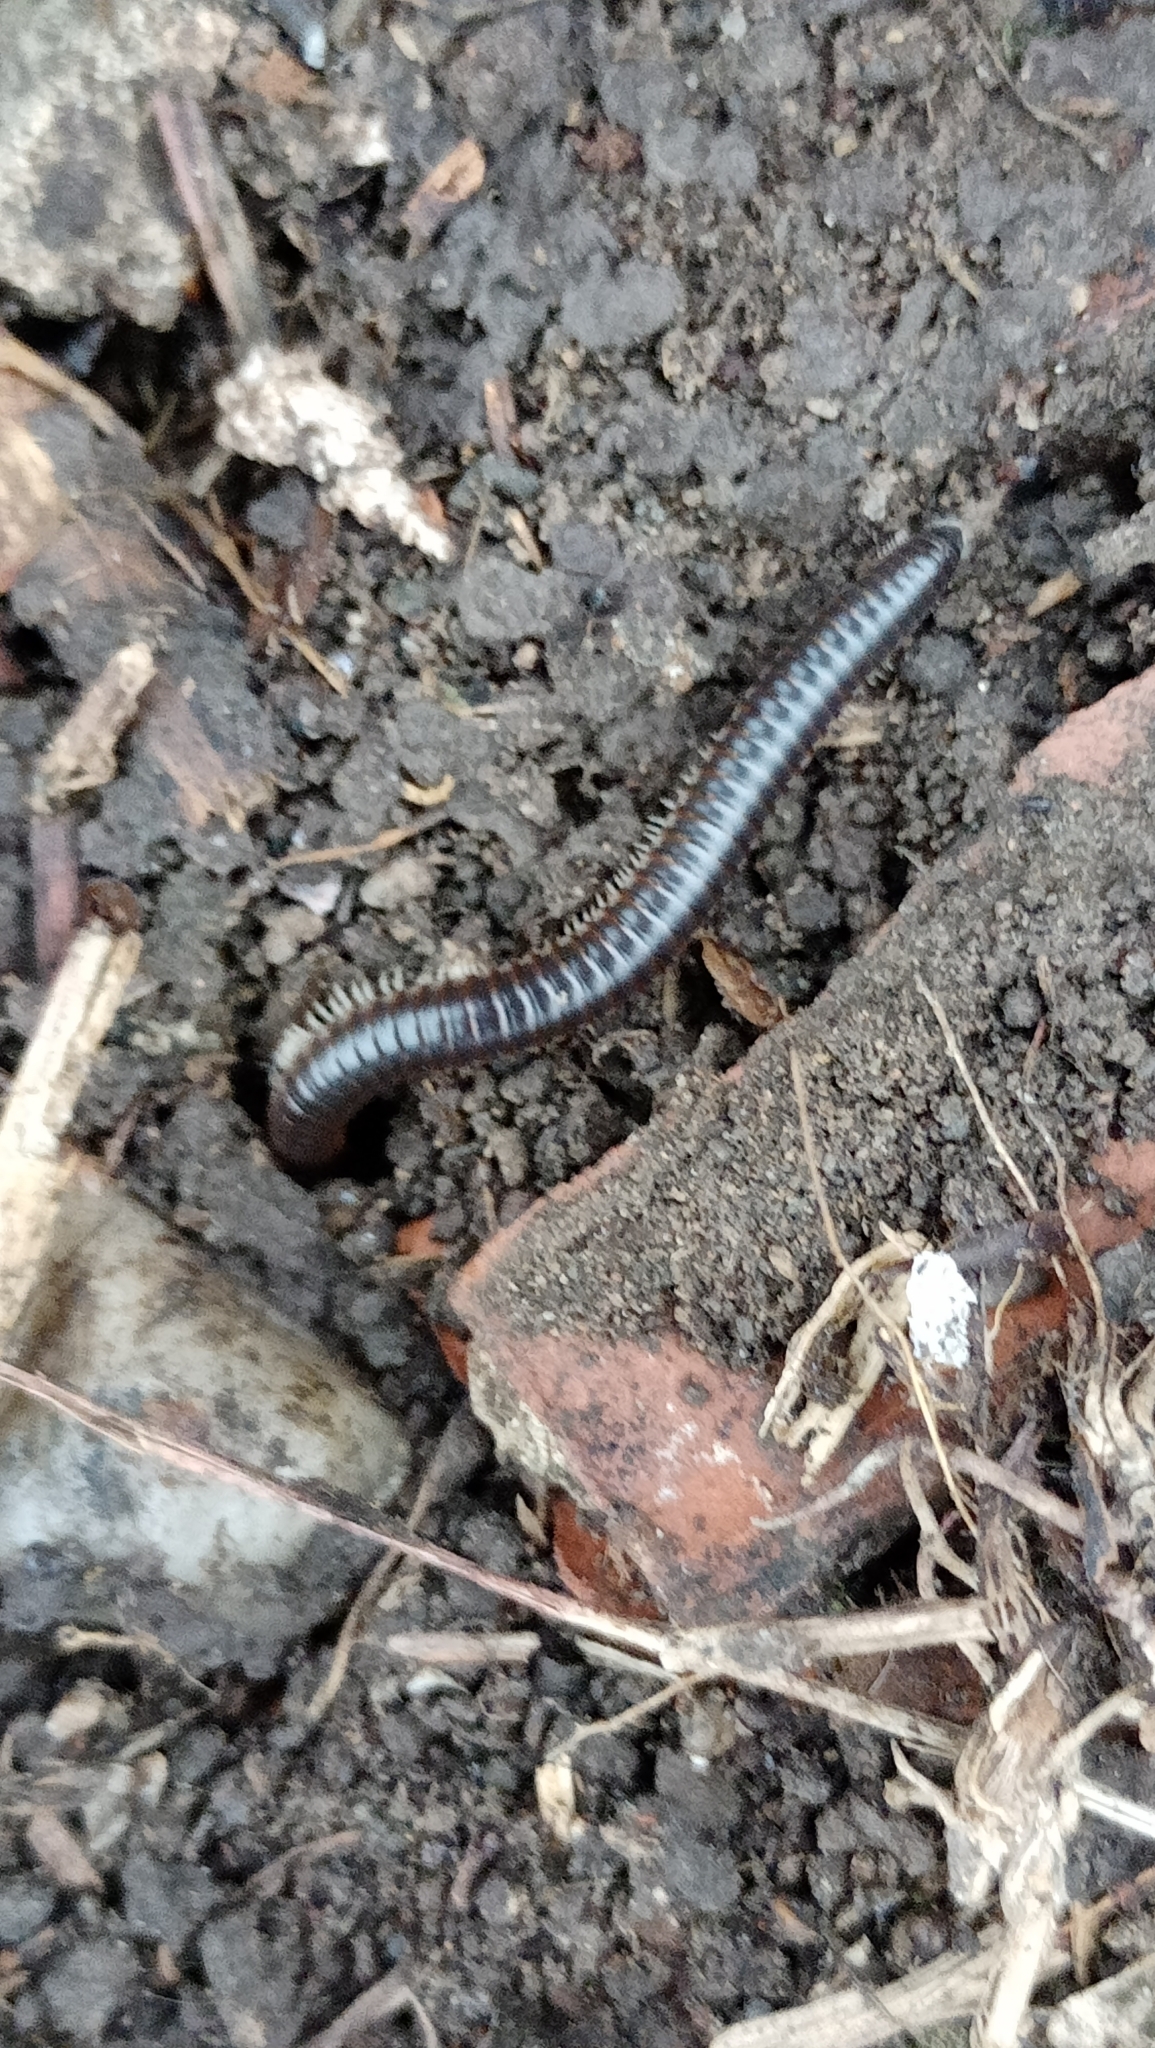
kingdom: Animalia
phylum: Arthropoda
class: Diplopoda
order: Julida
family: Julidae
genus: Pachyiulus
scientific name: Pachyiulus flavipes
